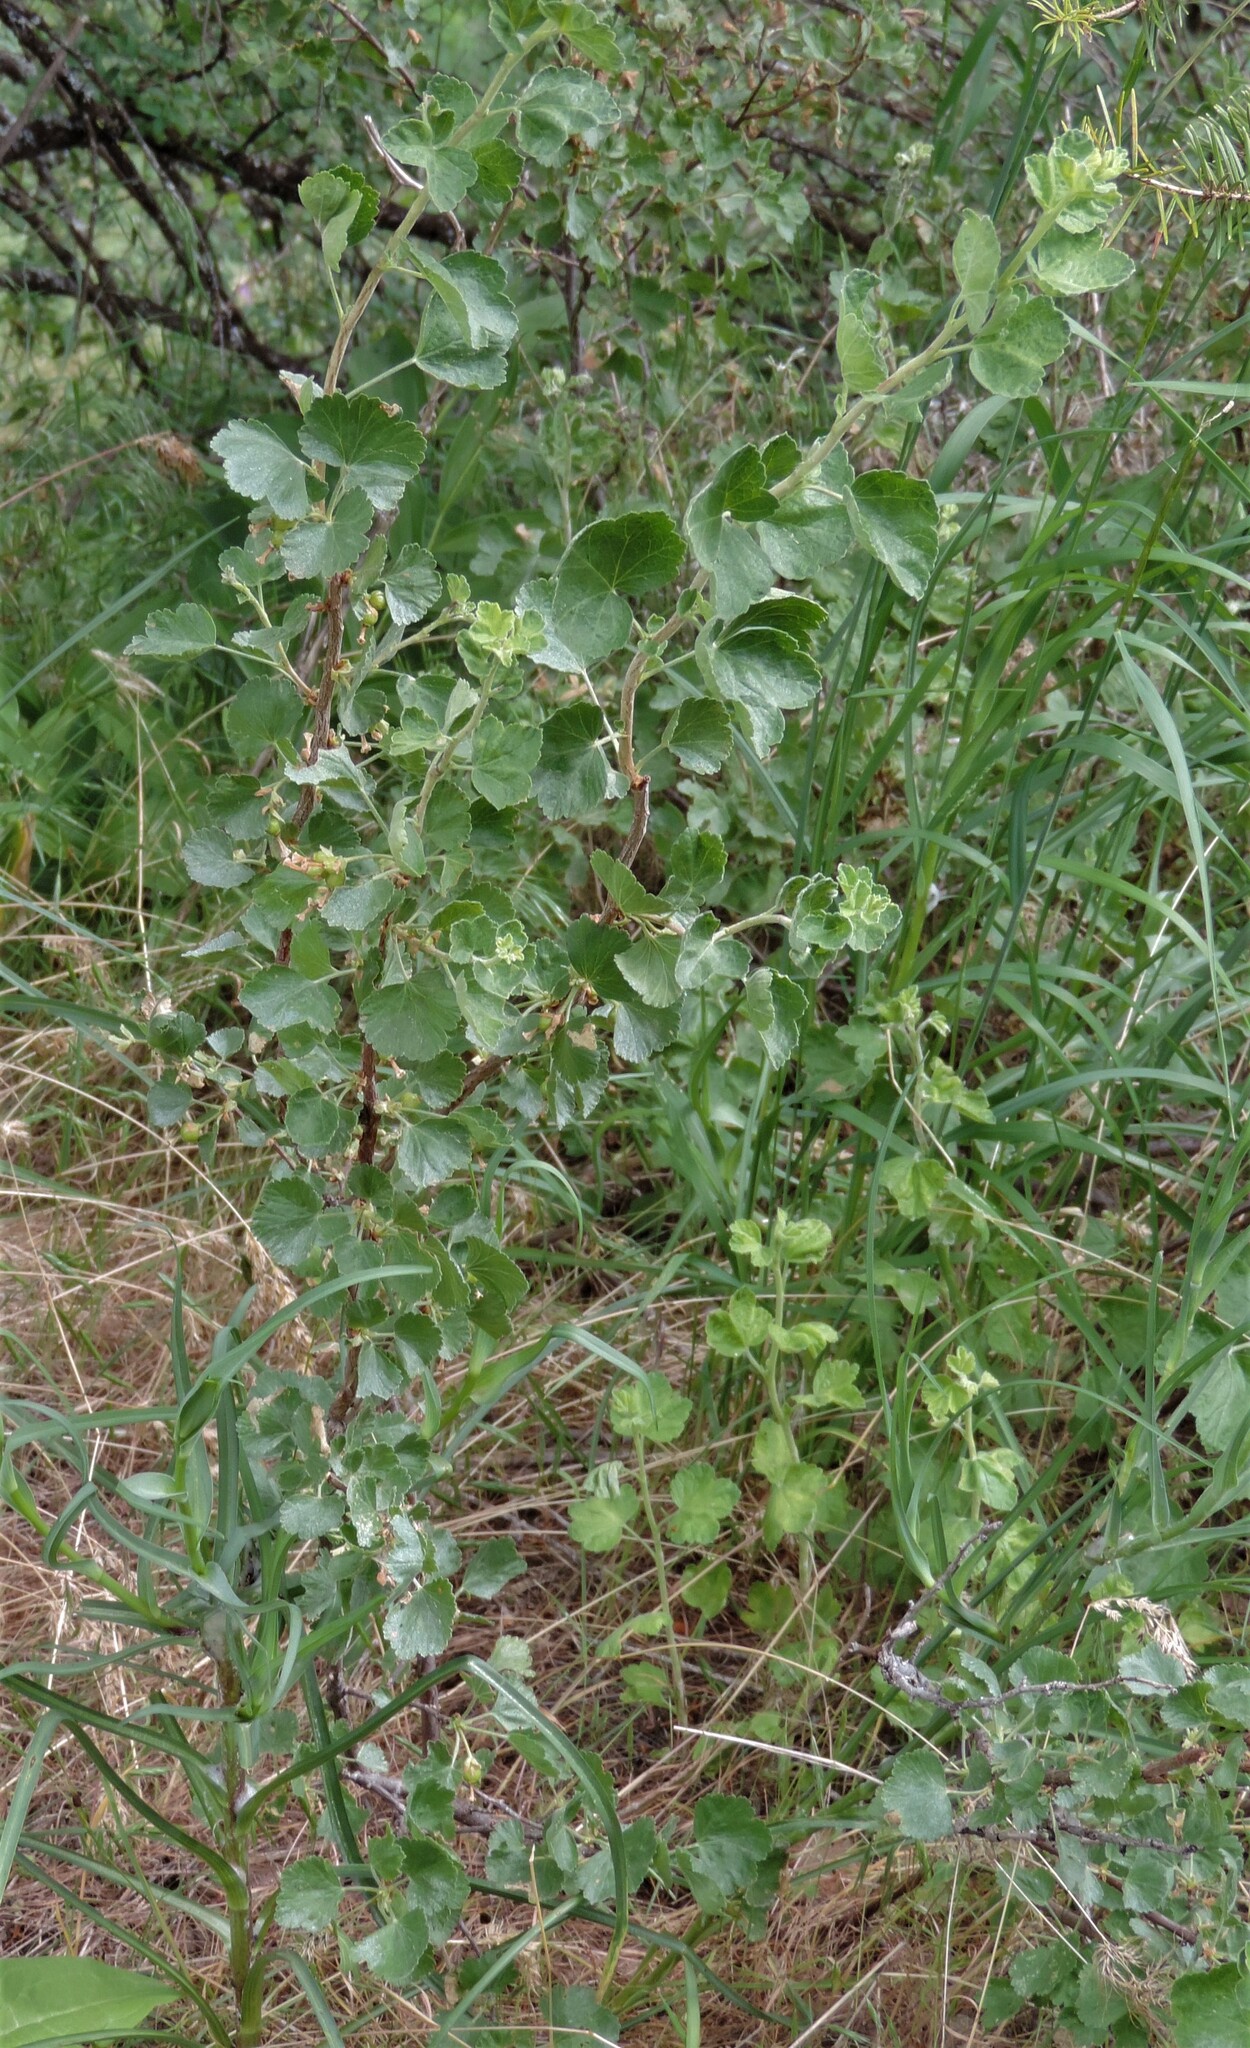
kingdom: Plantae
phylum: Tracheophyta
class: Magnoliopsida
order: Saxifragales
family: Grossulariaceae
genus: Ribes
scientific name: Ribes cereum
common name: Wax currant
